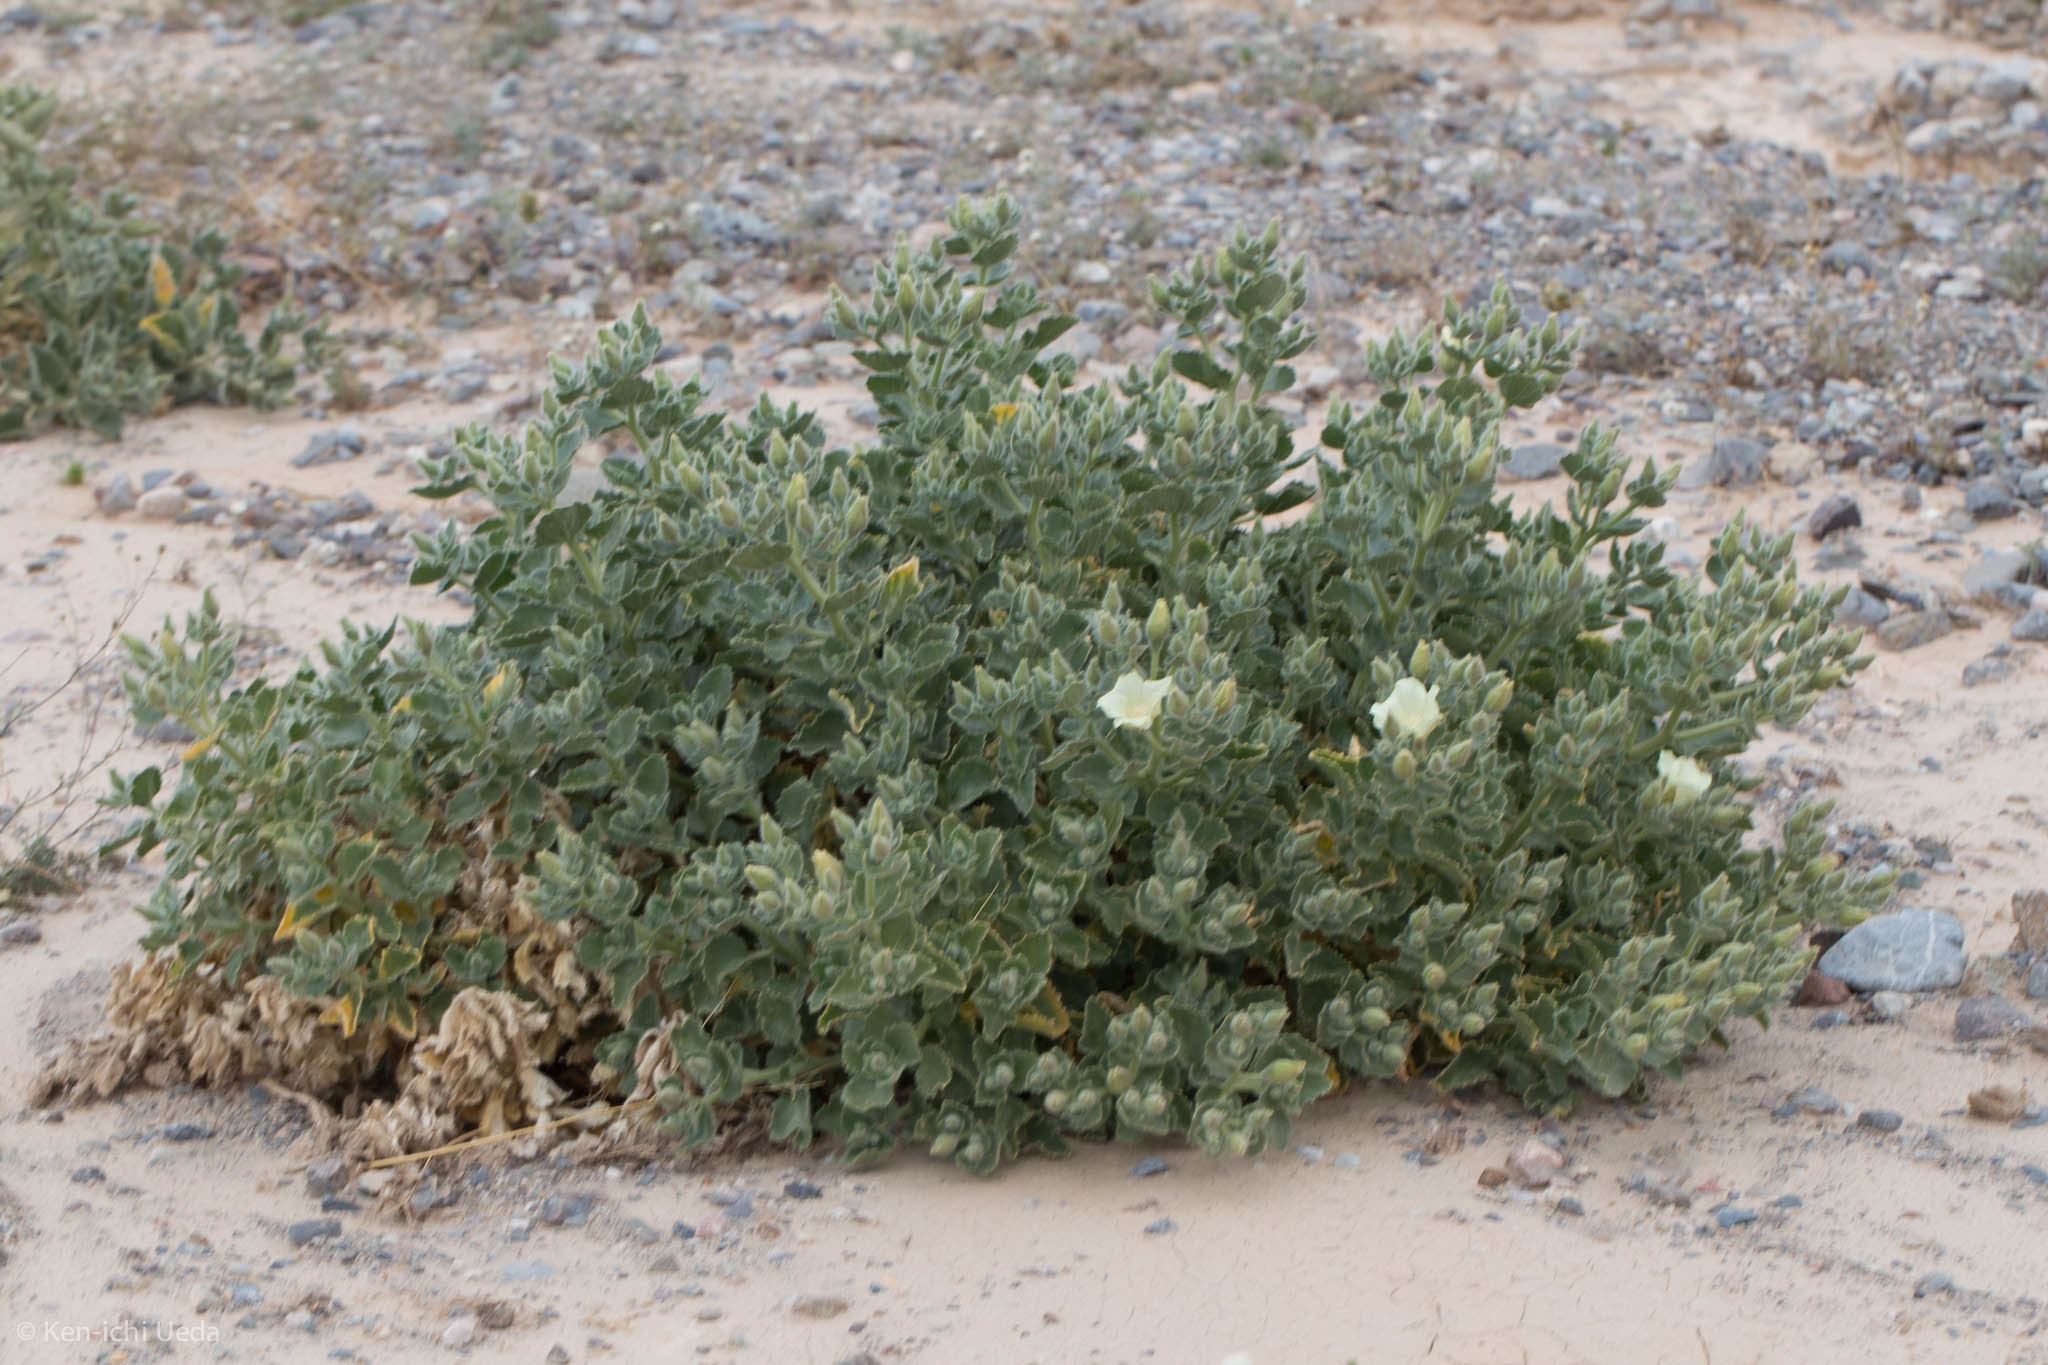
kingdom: Plantae
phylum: Tracheophyta
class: Magnoliopsida
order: Cornales
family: Loasaceae
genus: Eucnide
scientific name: Eucnide urens
